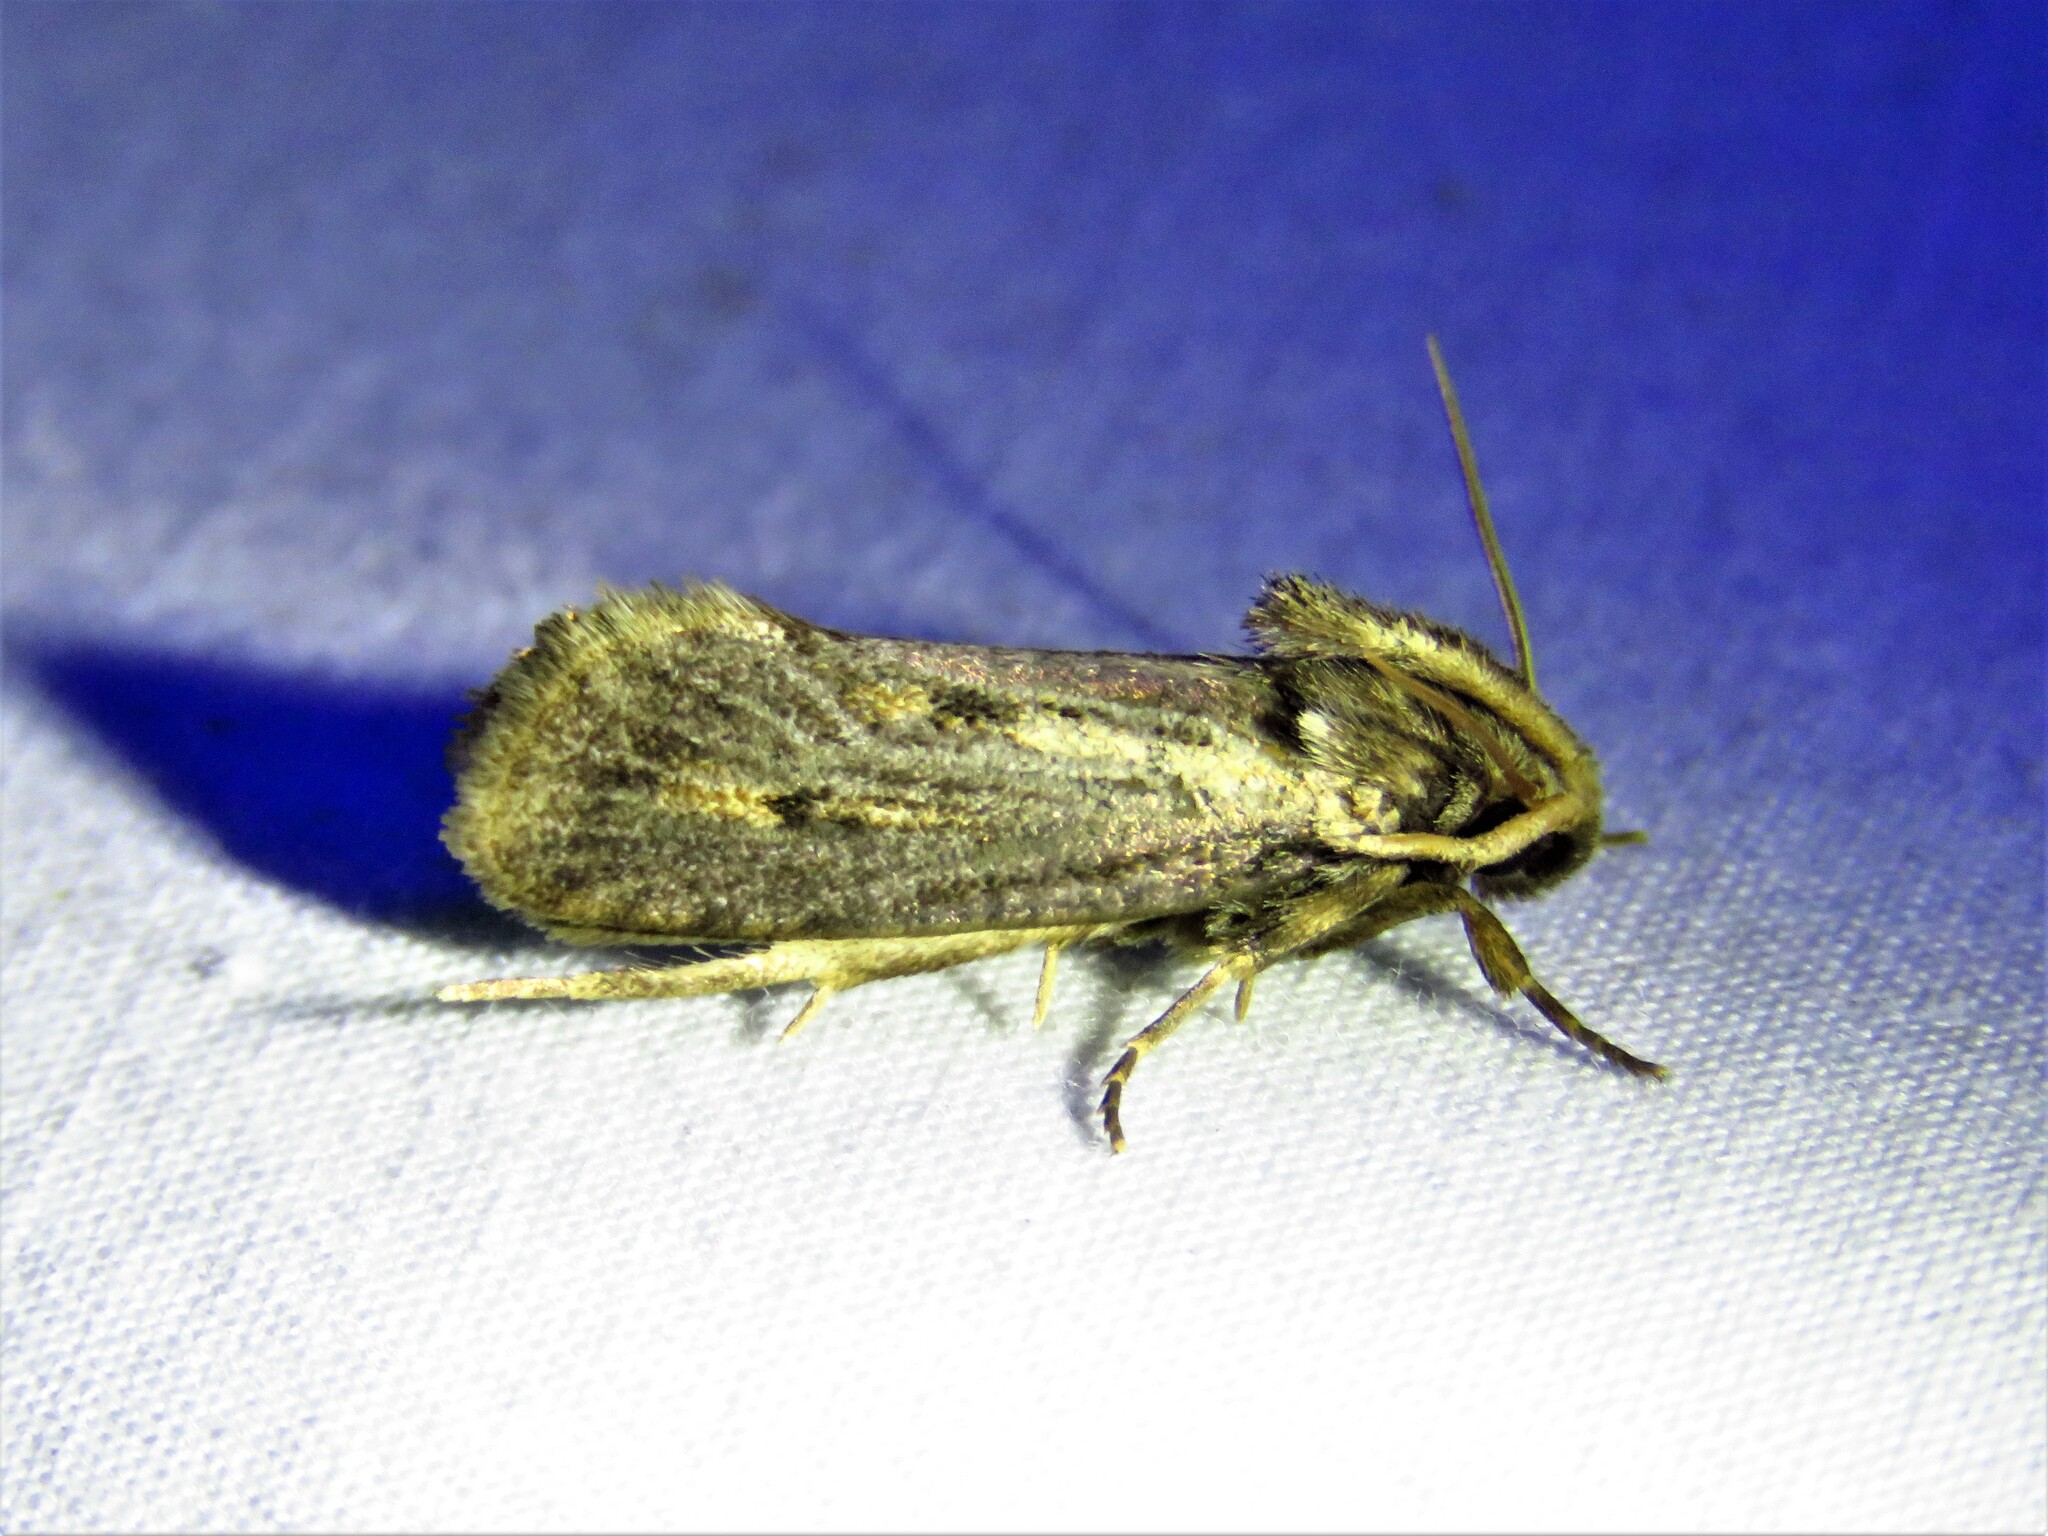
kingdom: Animalia
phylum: Arthropoda
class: Insecta
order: Lepidoptera
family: Tineidae
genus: Acrolophus
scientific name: Acrolophus popeanella
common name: Clemens' grass tubeworm moth
